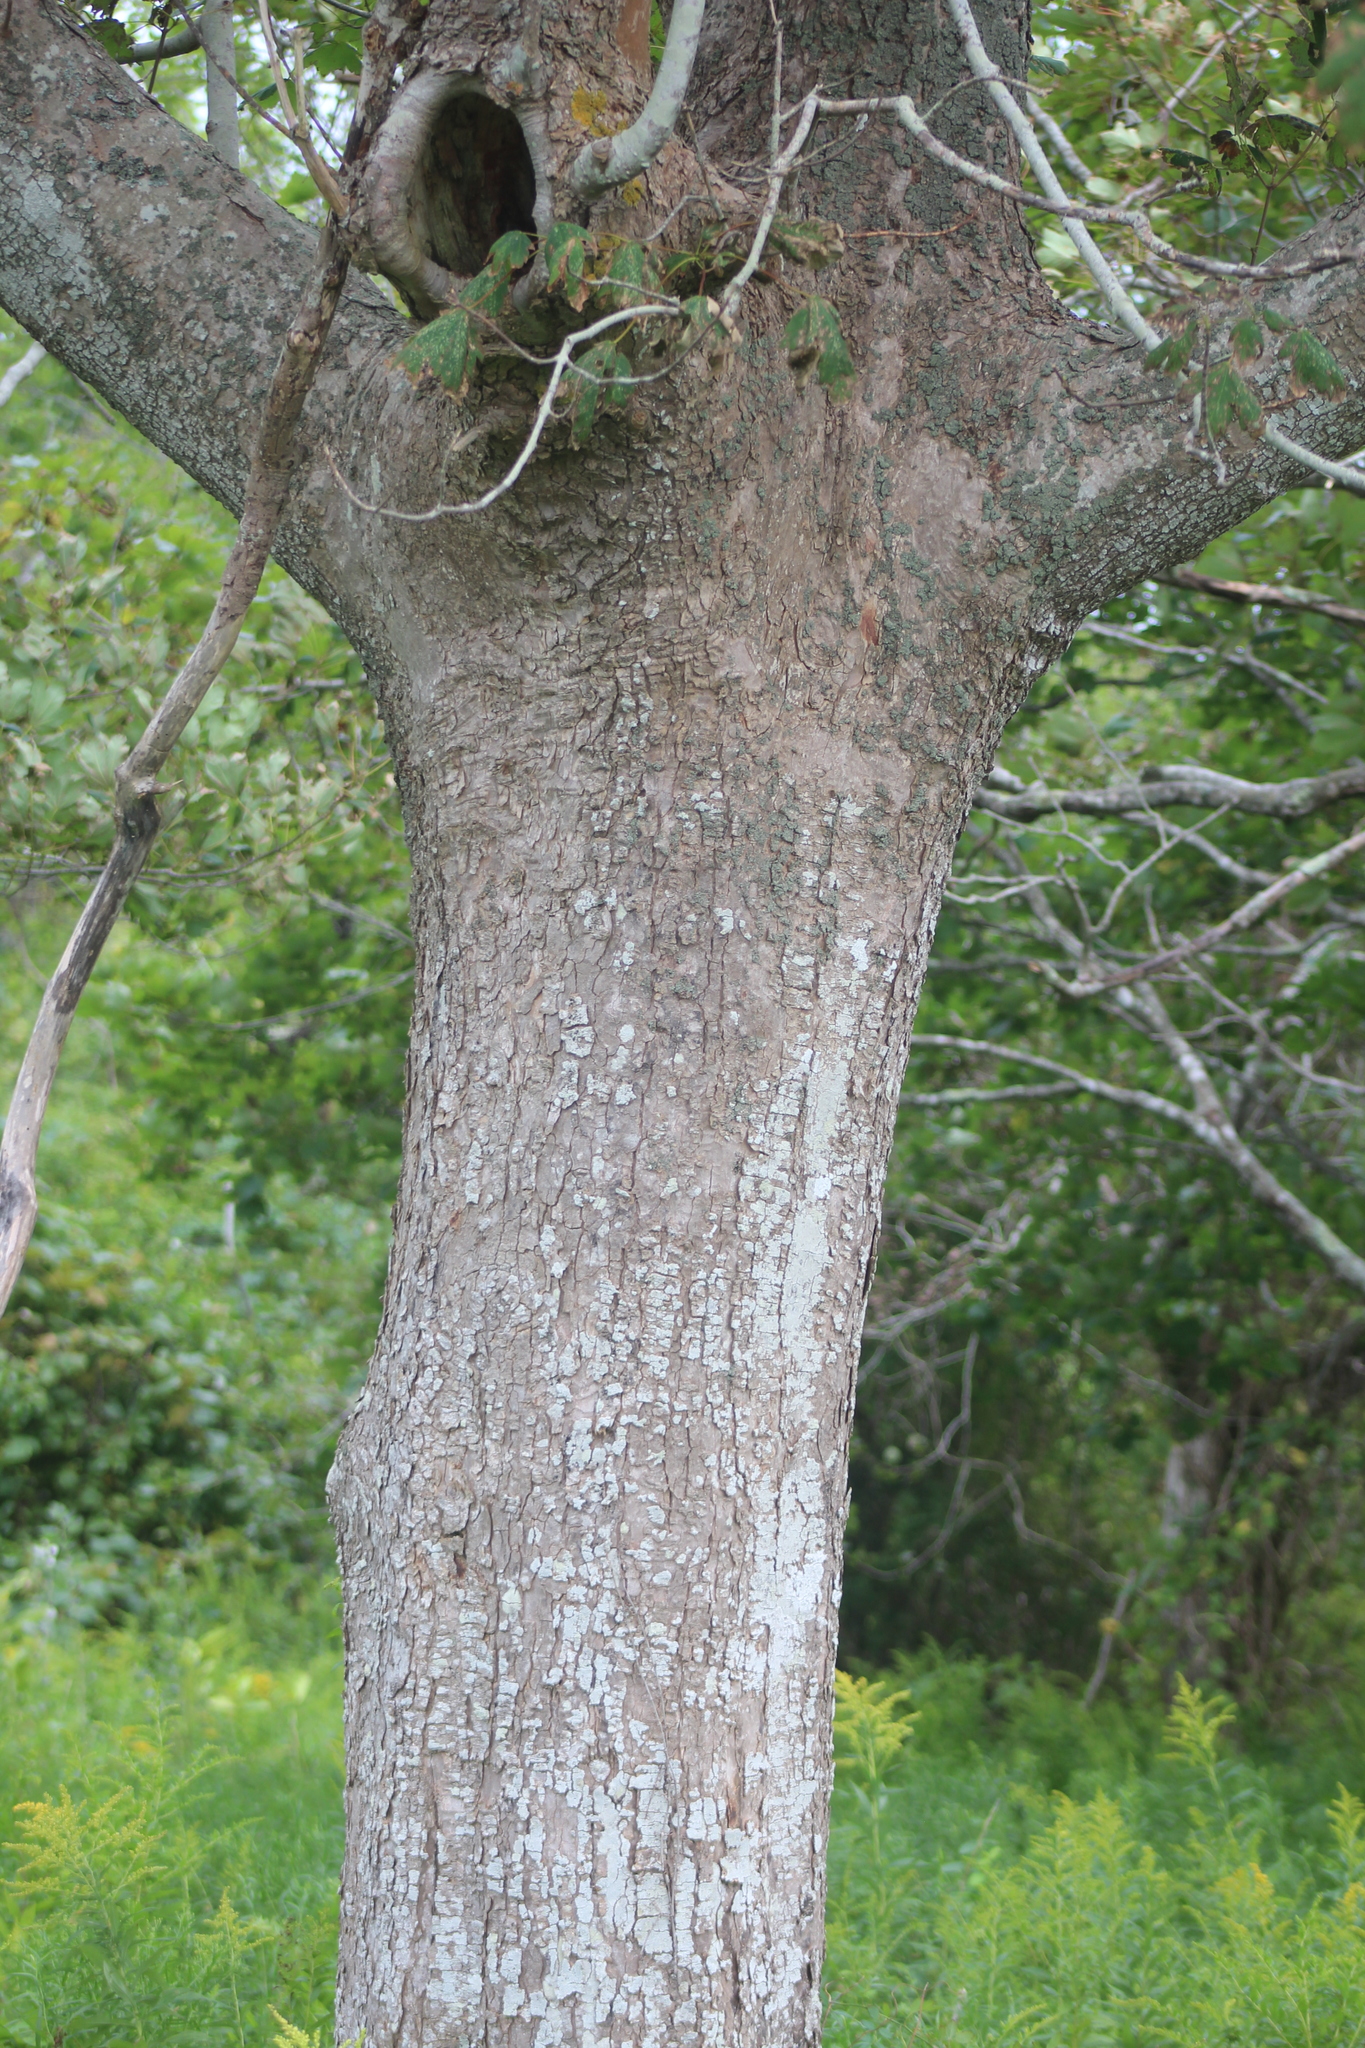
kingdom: Plantae
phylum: Tracheophyta
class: Magnoliopsida
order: Sapindales
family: Sapindaceae
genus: Acer
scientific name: Acer pseudoplatanus
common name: Sycamore
